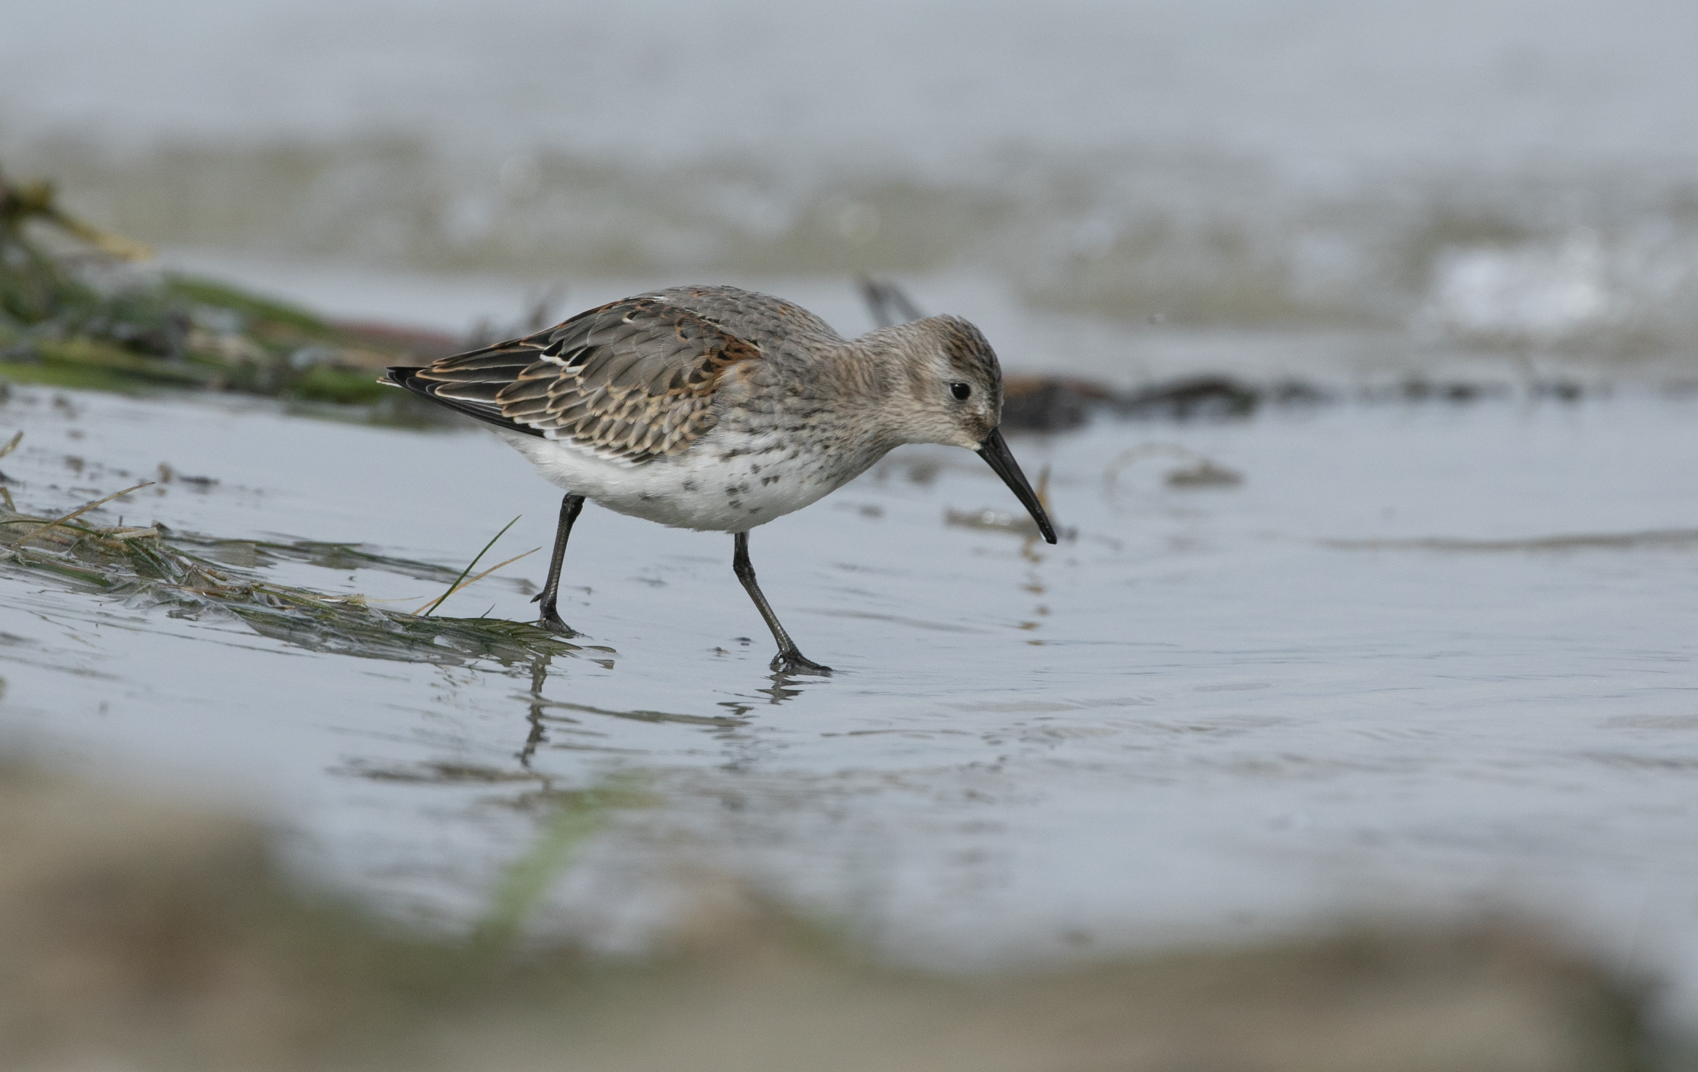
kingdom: Animalia
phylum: Chordata
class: Aves
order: Charadriiformes
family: Scolopacidae
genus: Calidris
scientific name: Calidris alpina
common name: Dunlin
